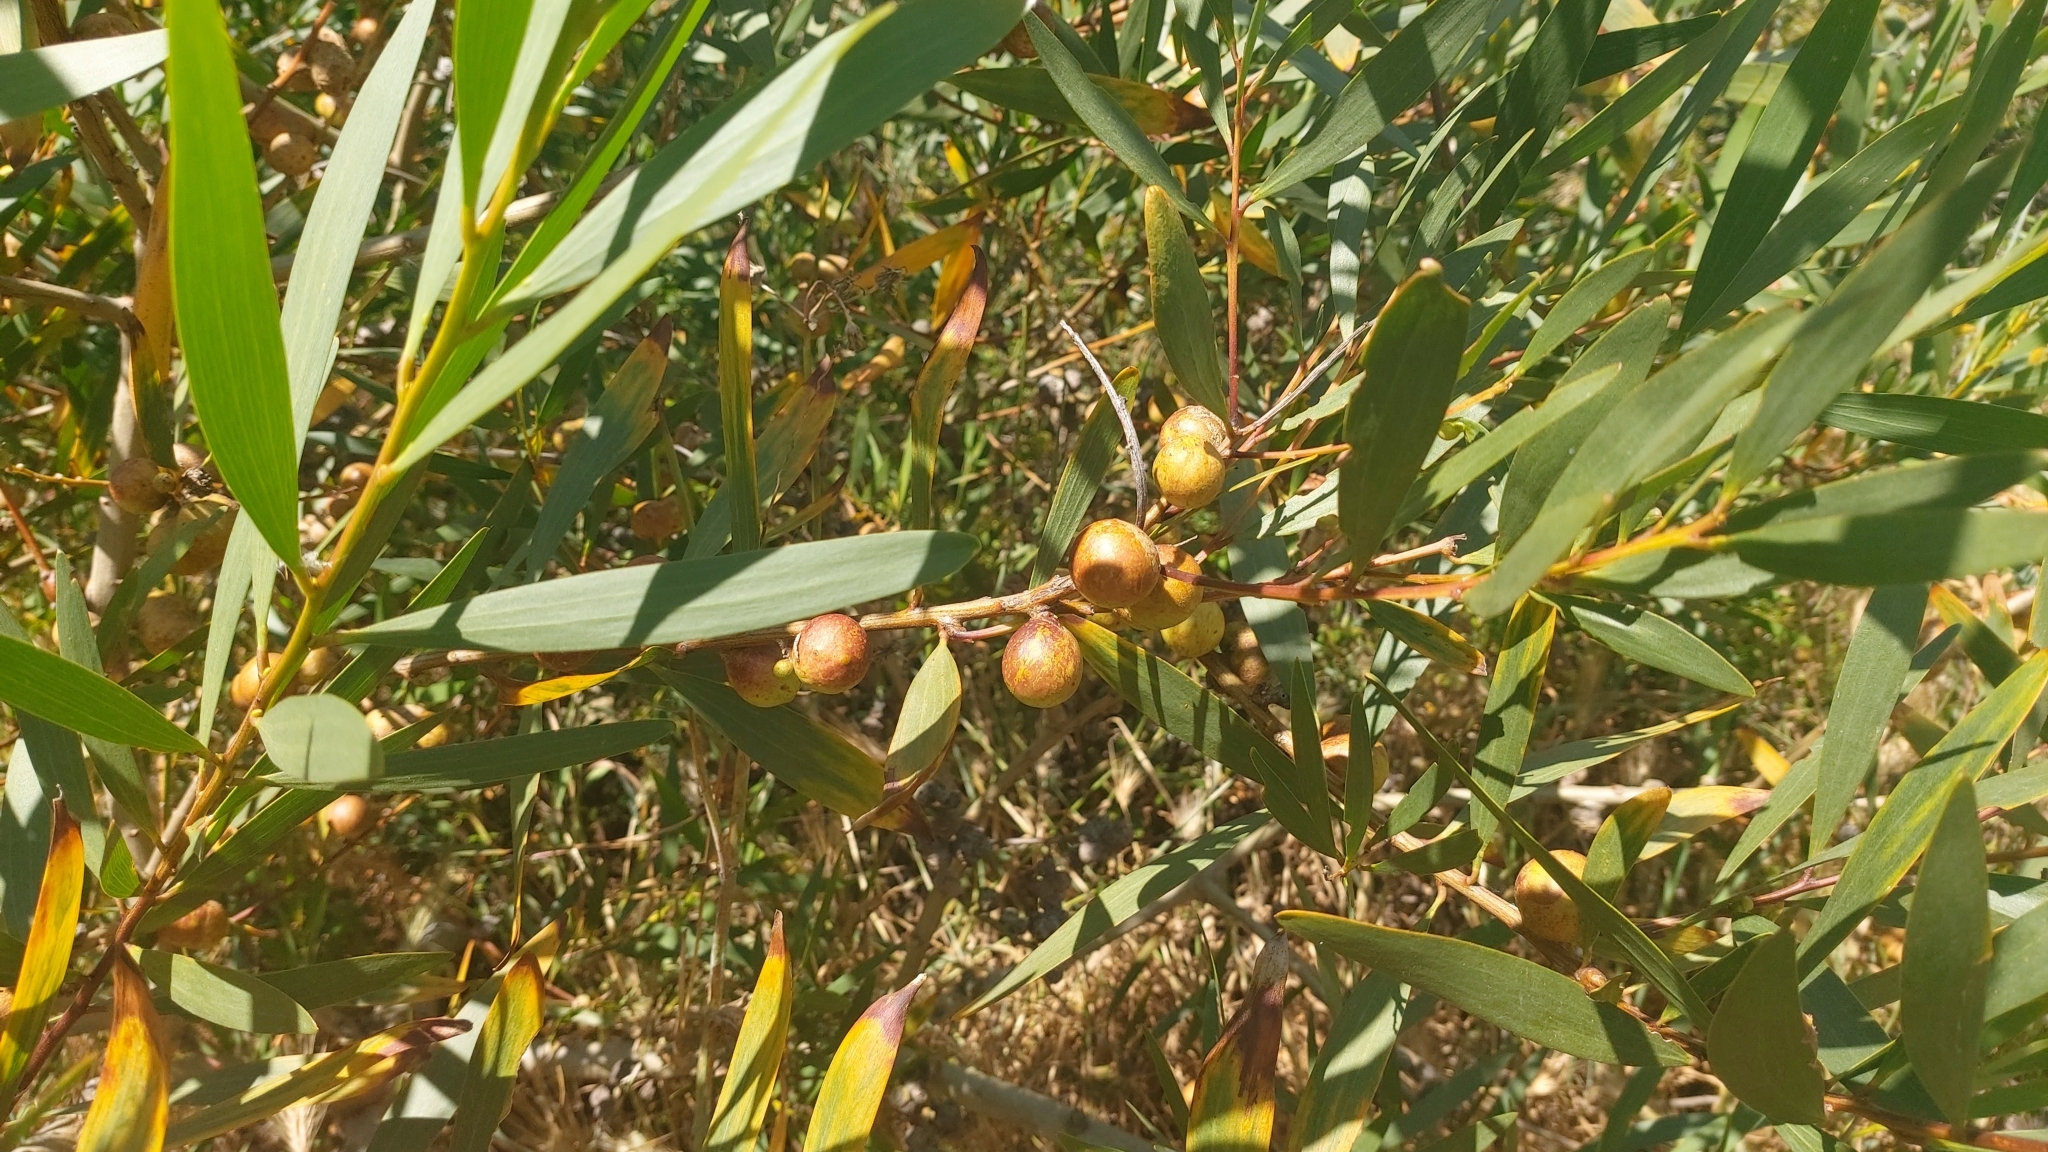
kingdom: Animalia
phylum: Arthropoda
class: Insecta
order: Hymenoptera
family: Pteromalidae
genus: Trichilogaster
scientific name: Trichilogaster acaciaelongifoliae
